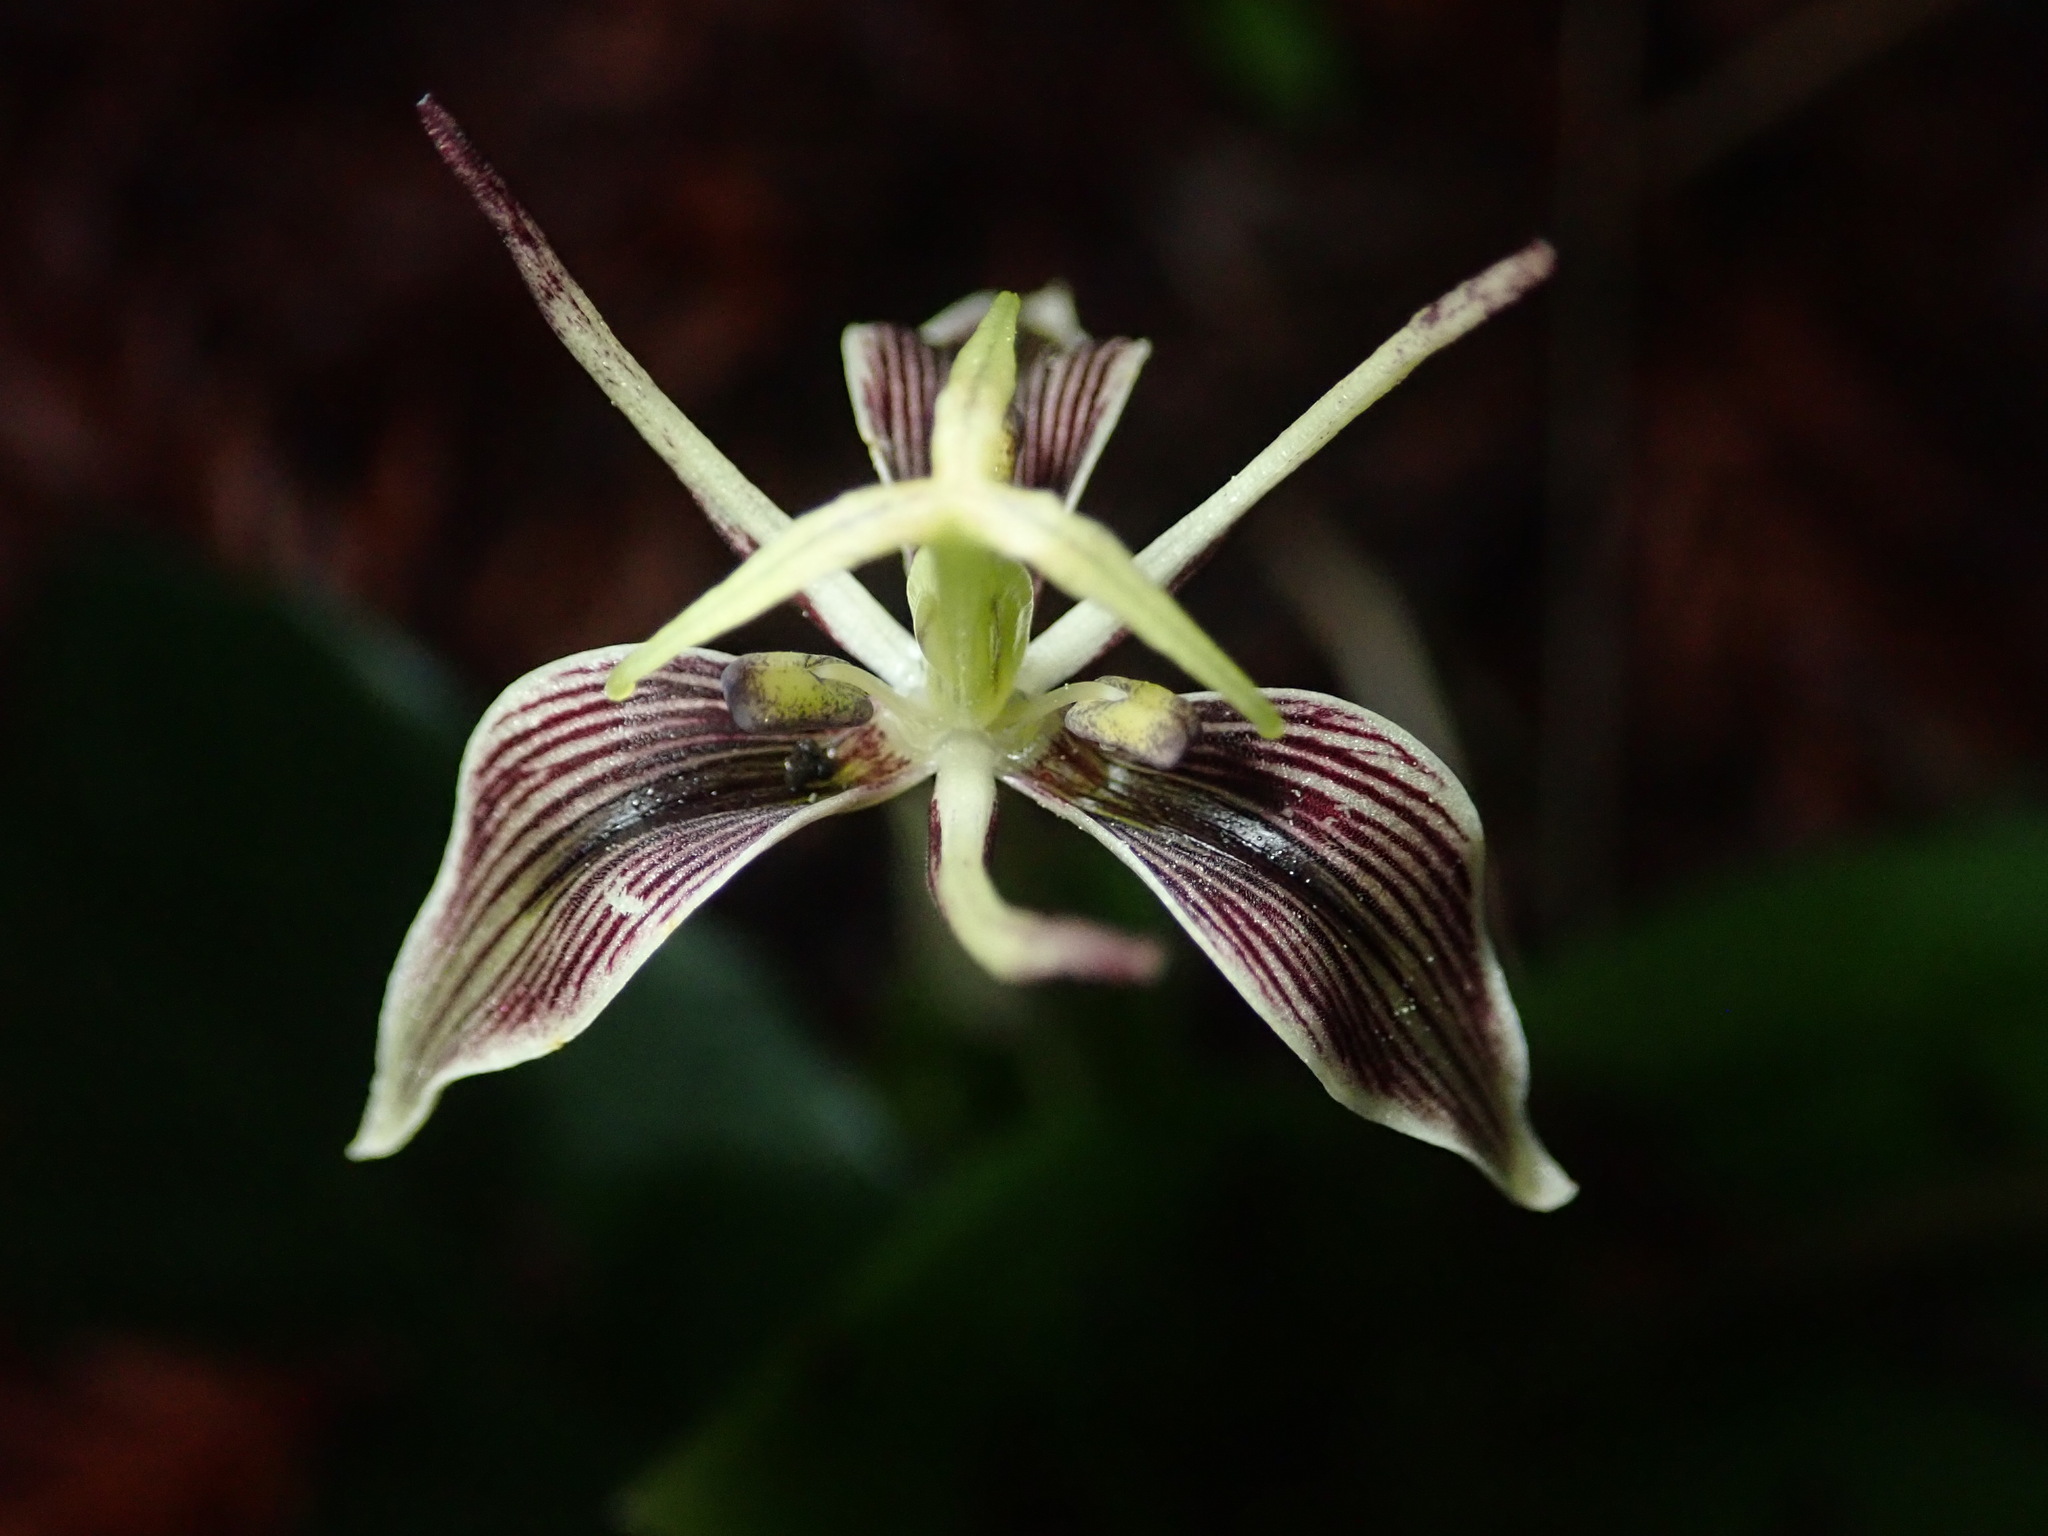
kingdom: Plantae
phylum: Tracheophyta
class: Liliopsida
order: Liliales
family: Liliaceae
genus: Scoliopus
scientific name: Scoliopus bigelovii
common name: Foetid adder's-tongue
